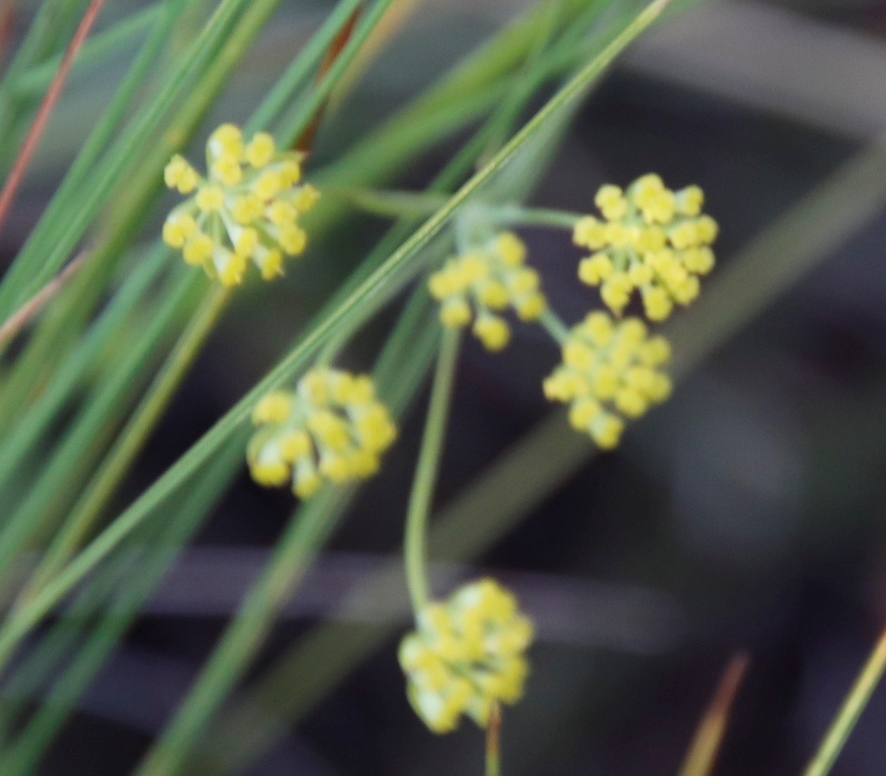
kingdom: Plantae
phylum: Tracheophyta
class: Magnoliopsida
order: Apiales
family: Apiaceae
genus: Bupleurum
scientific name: Bupleurum mundii
